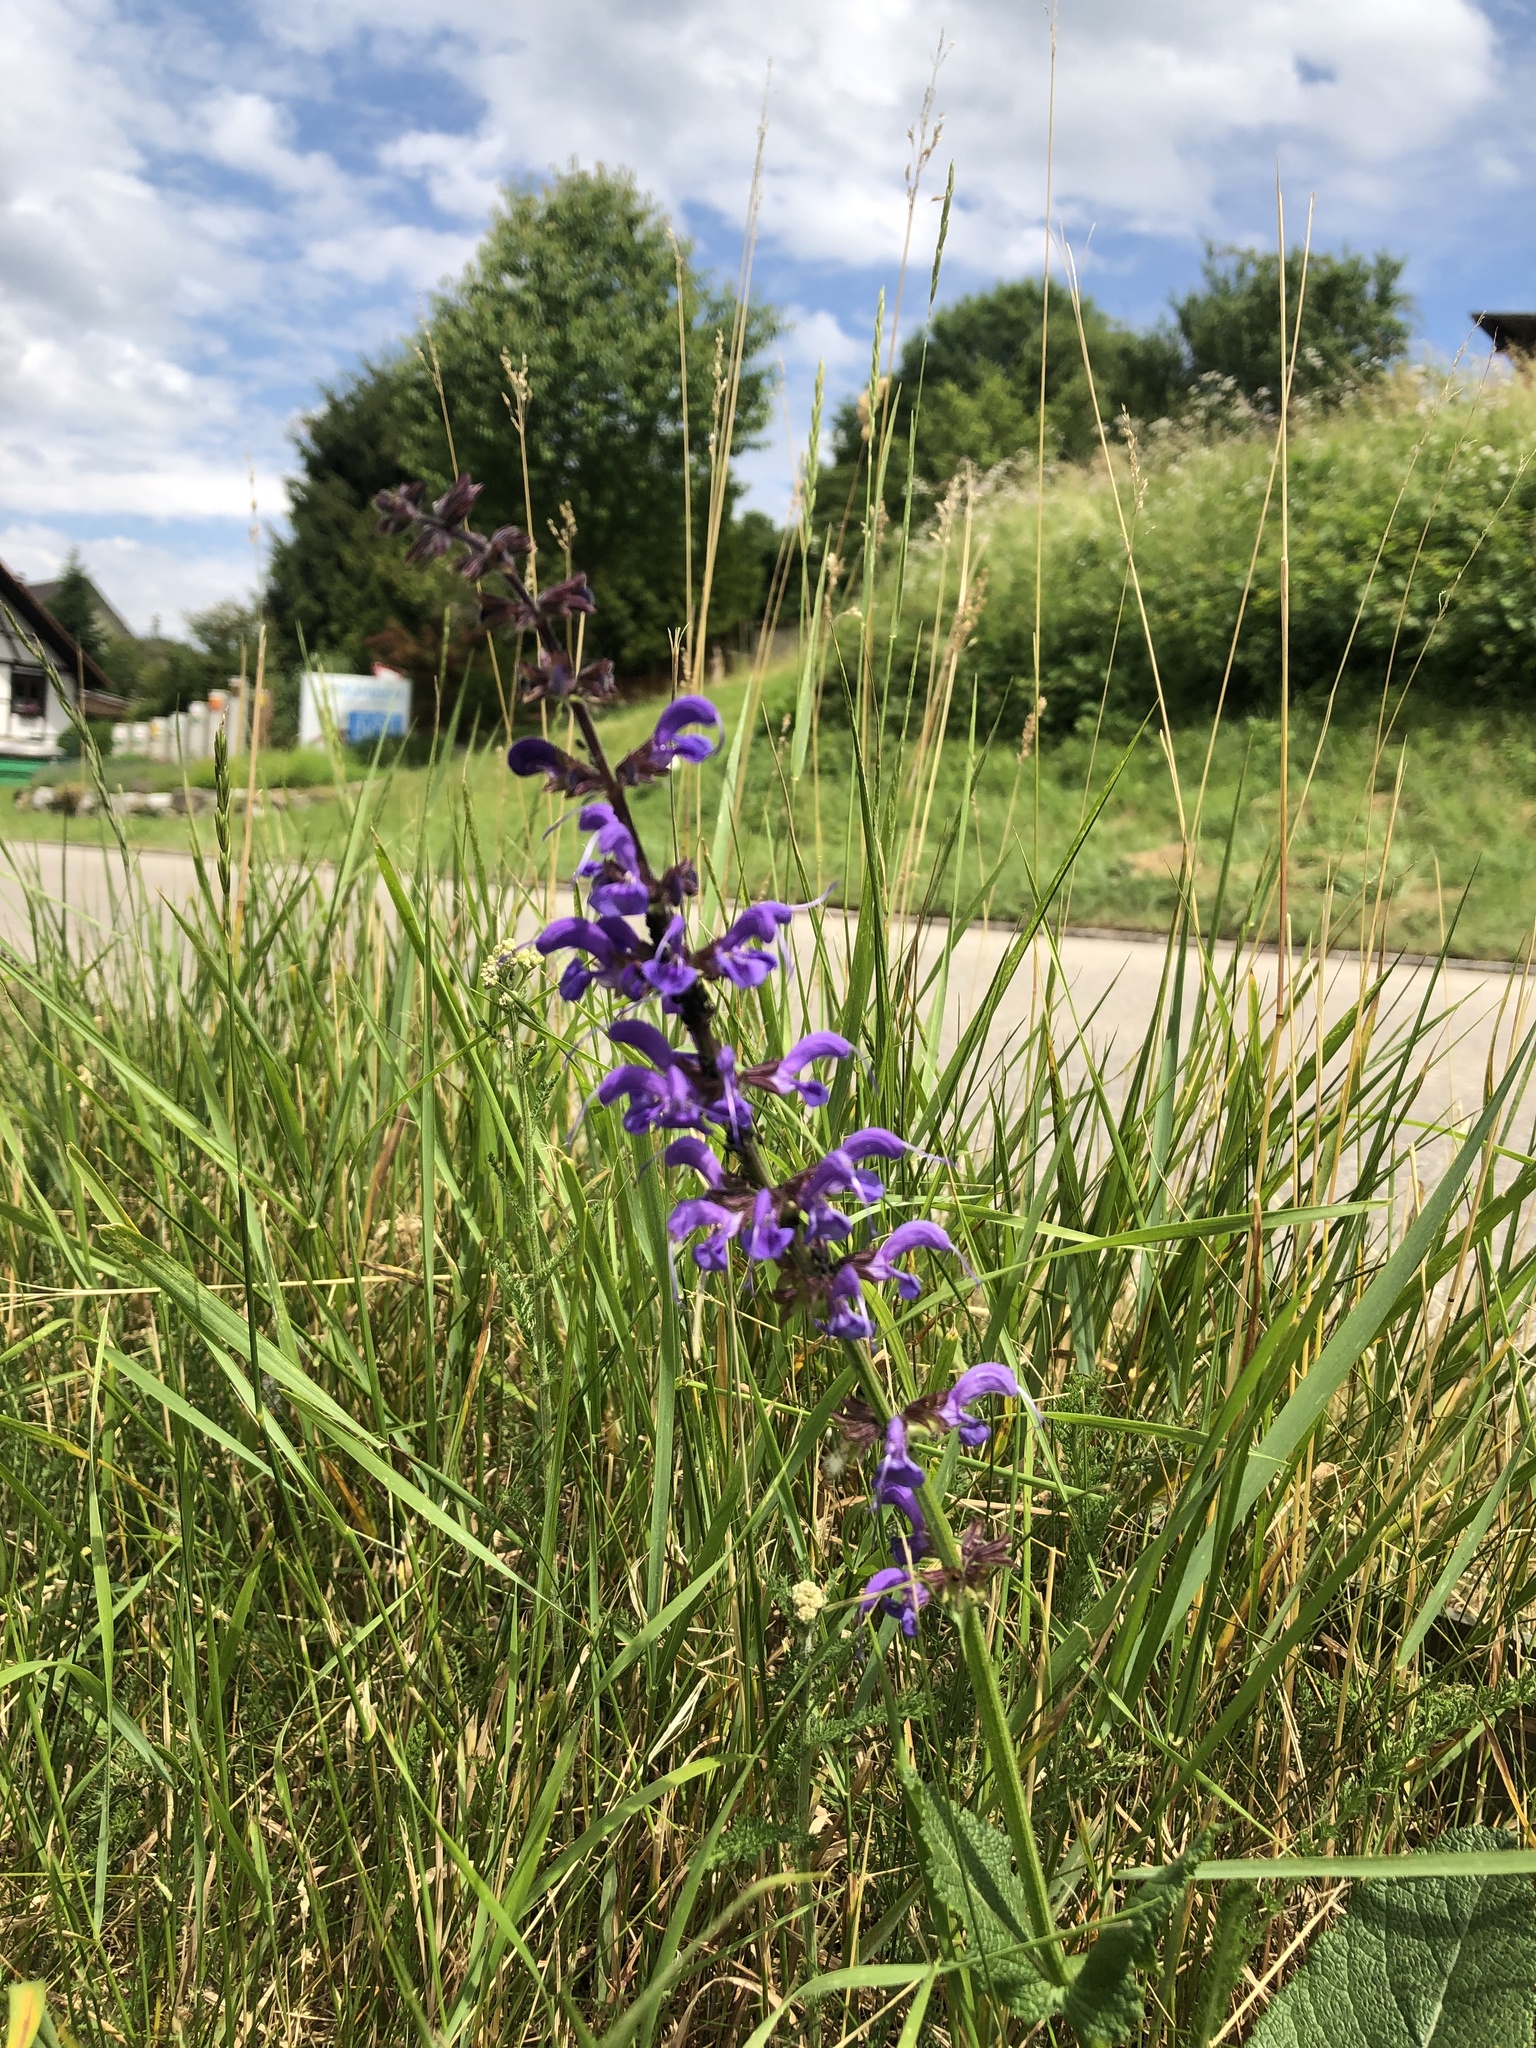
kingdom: Plantae
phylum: Tracheophyta
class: Magnoliopsida
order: Lamiales
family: Lamiaceae
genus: Salvia
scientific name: Salvia pratensis
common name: Meadow sage
